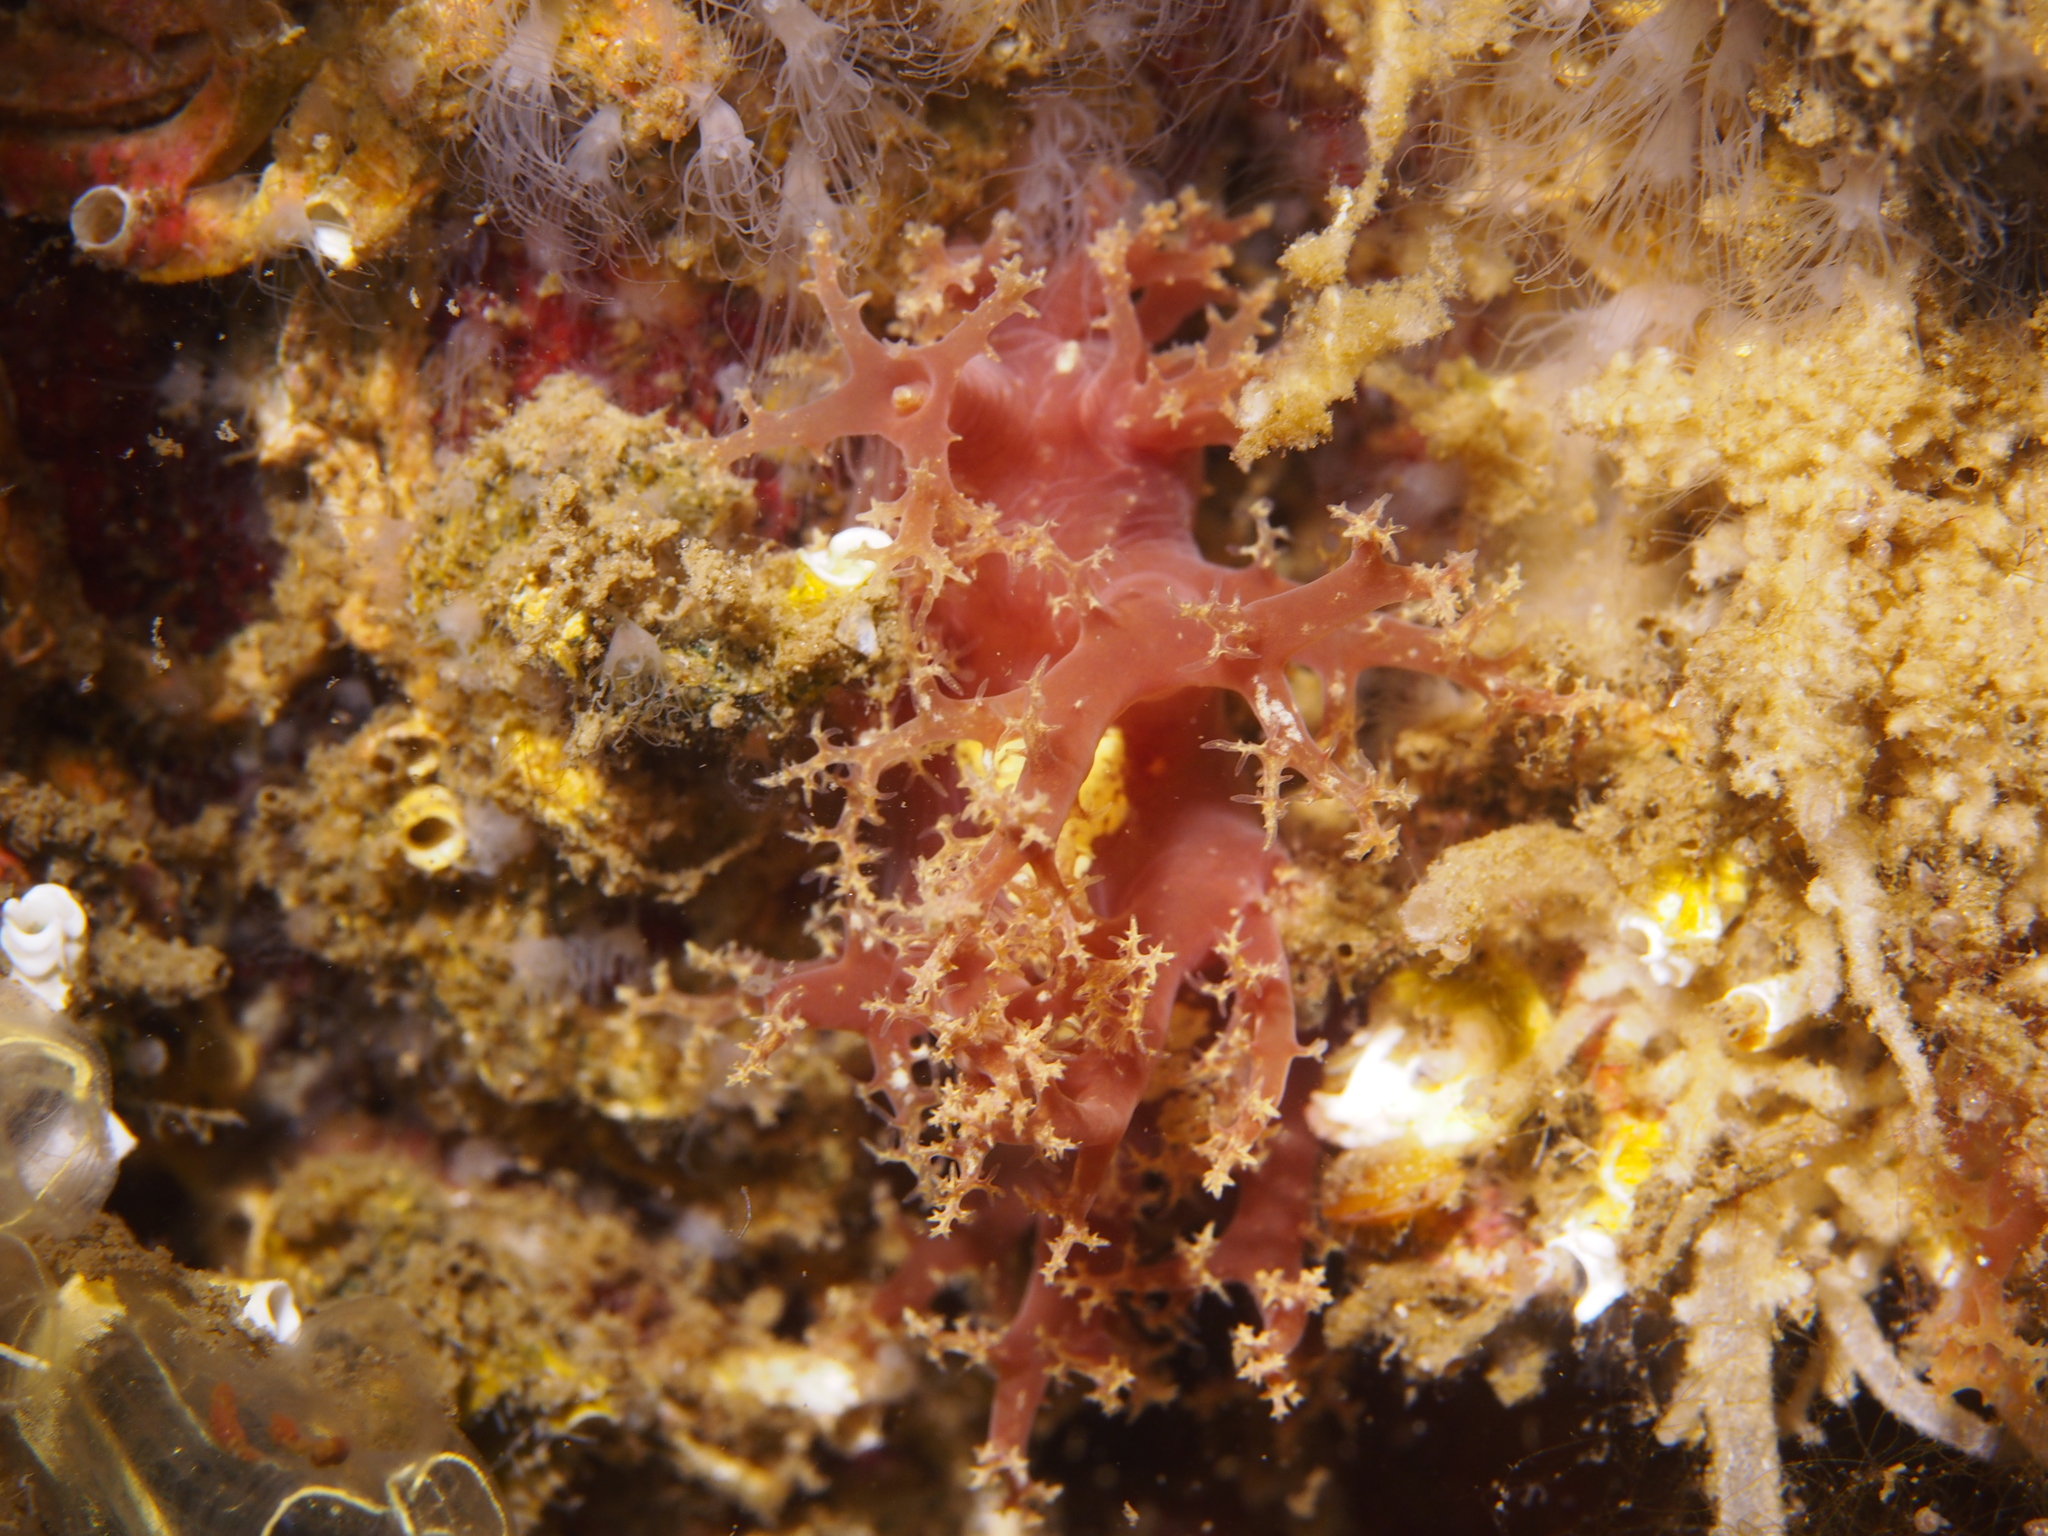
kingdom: Animalia
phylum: Mollusca
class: Gastropoda
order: Nudibranchia
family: Dendronotidae
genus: Dendronotus
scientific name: Dendronotus lacteus
